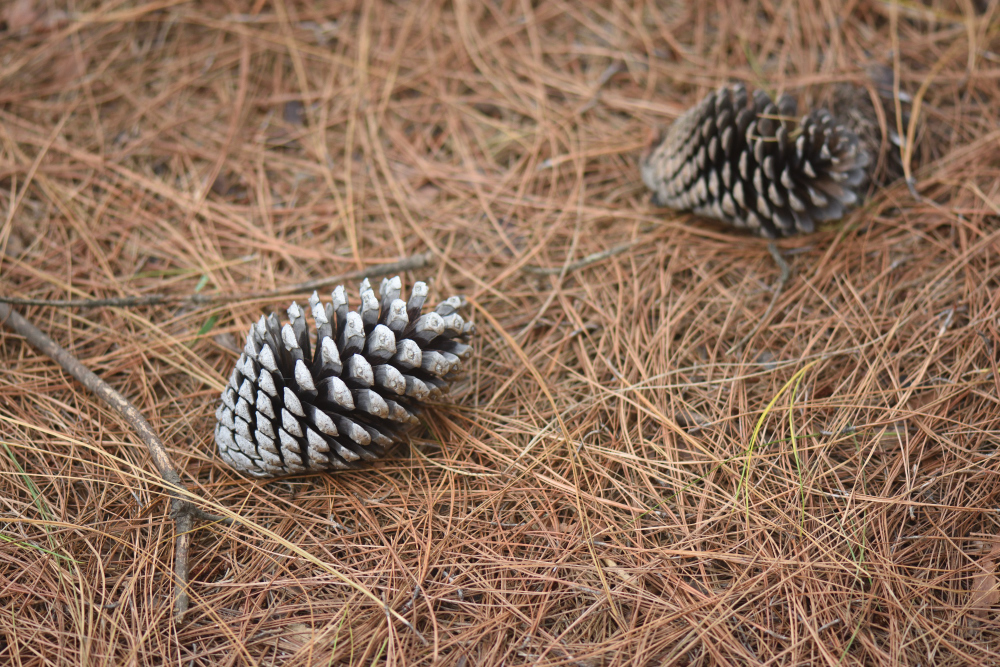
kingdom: Plantae
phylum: Tracheophyta
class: Pinopsida
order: Pinales
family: Pinaceae
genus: Pinus
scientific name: Pinus patula
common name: Mexican weeping pine
